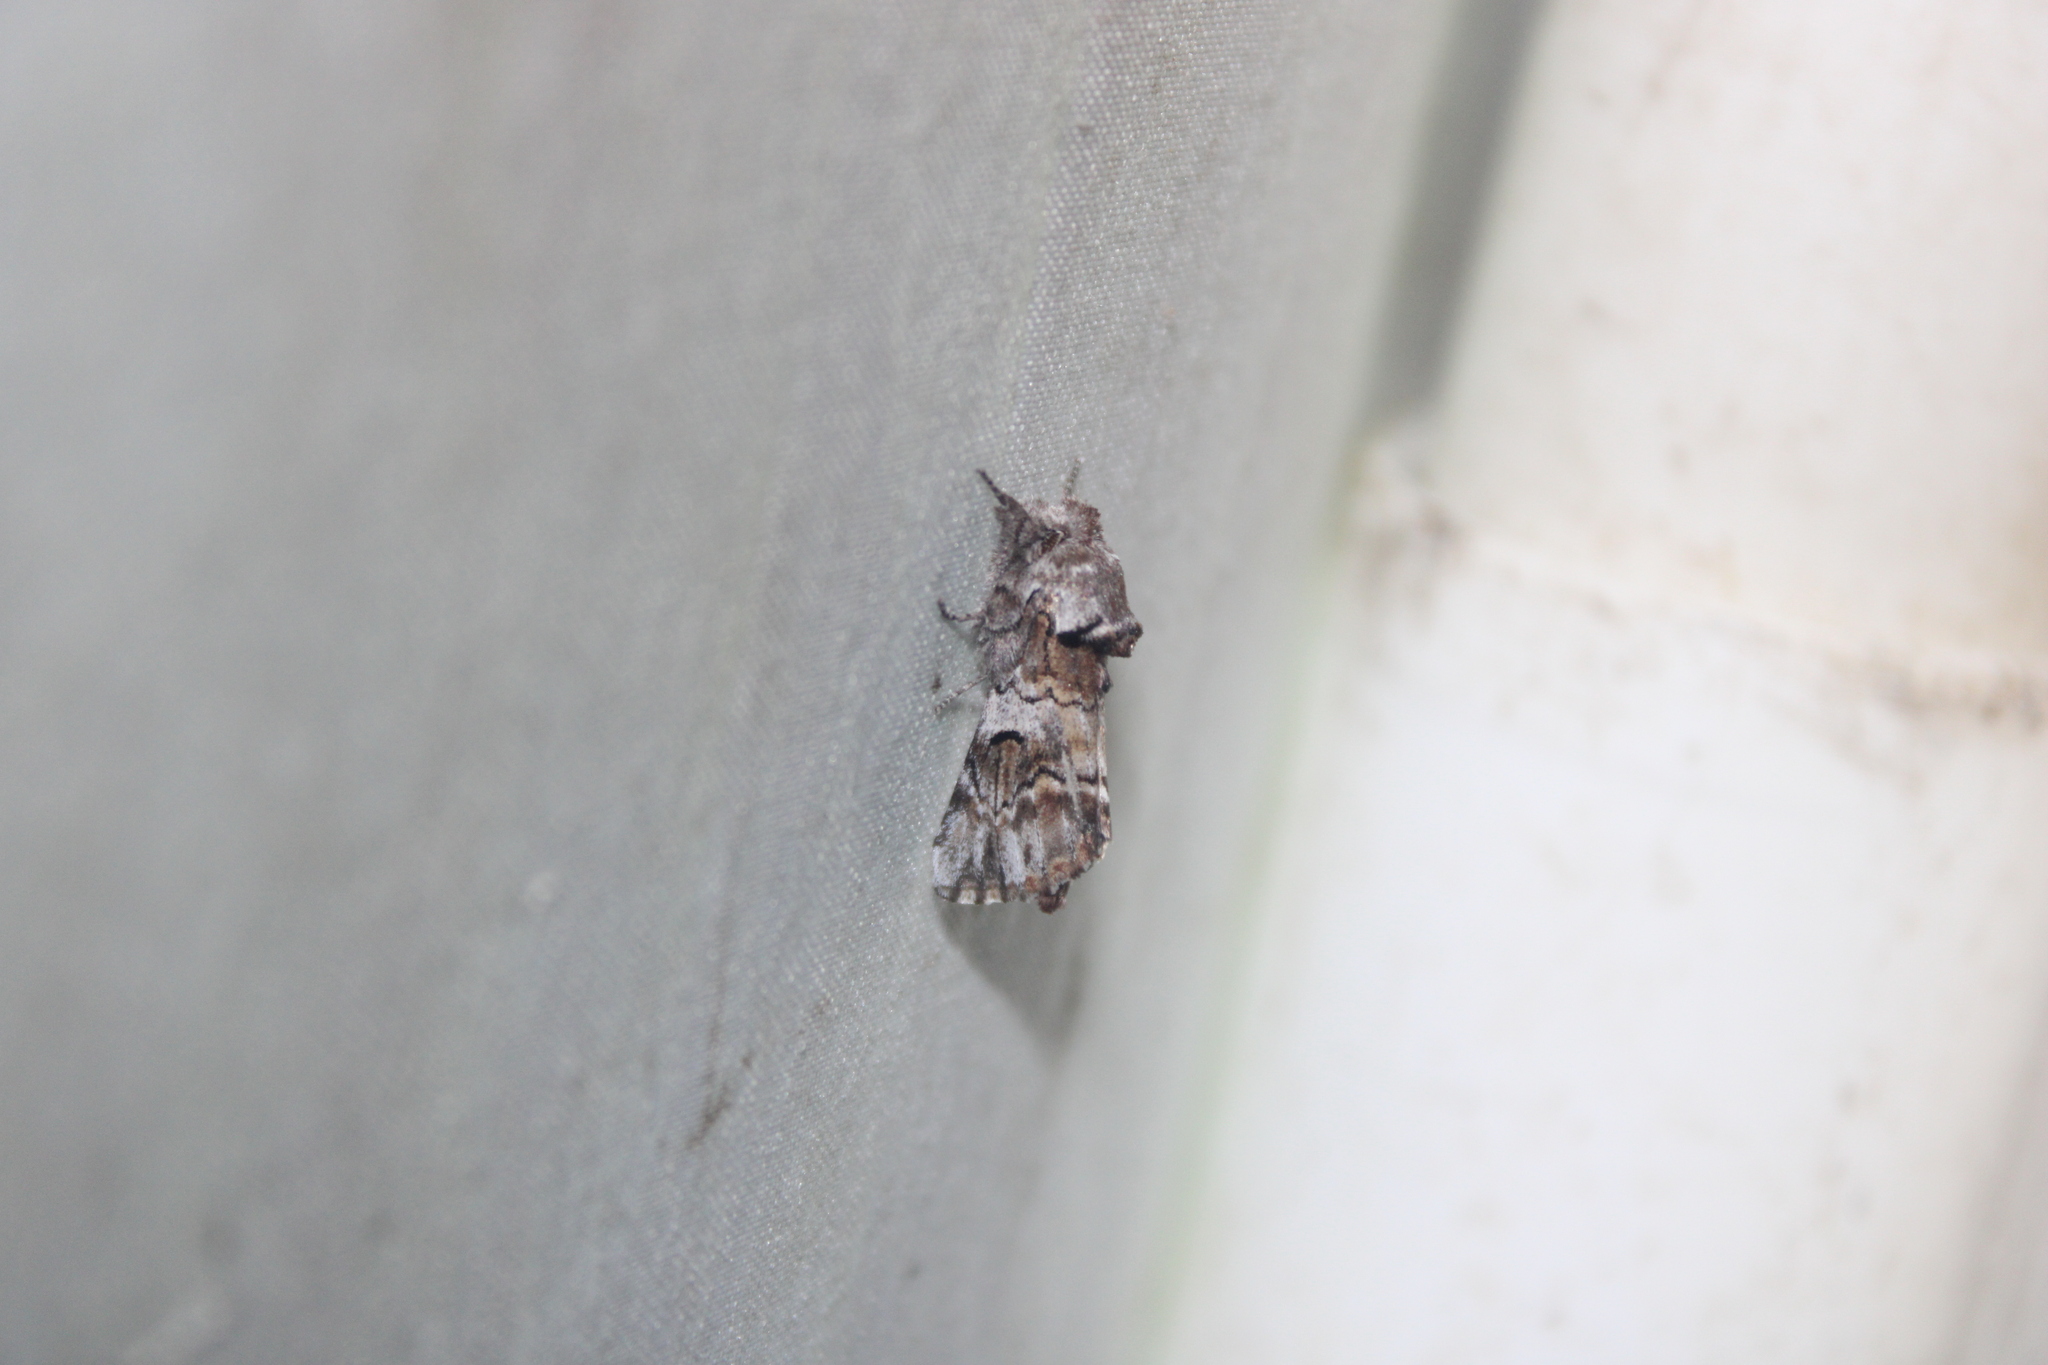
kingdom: Animalia
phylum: Arthropoda
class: Insecta
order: Lepidoptera
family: Notodontidae
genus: Schizura
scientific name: Schizura
